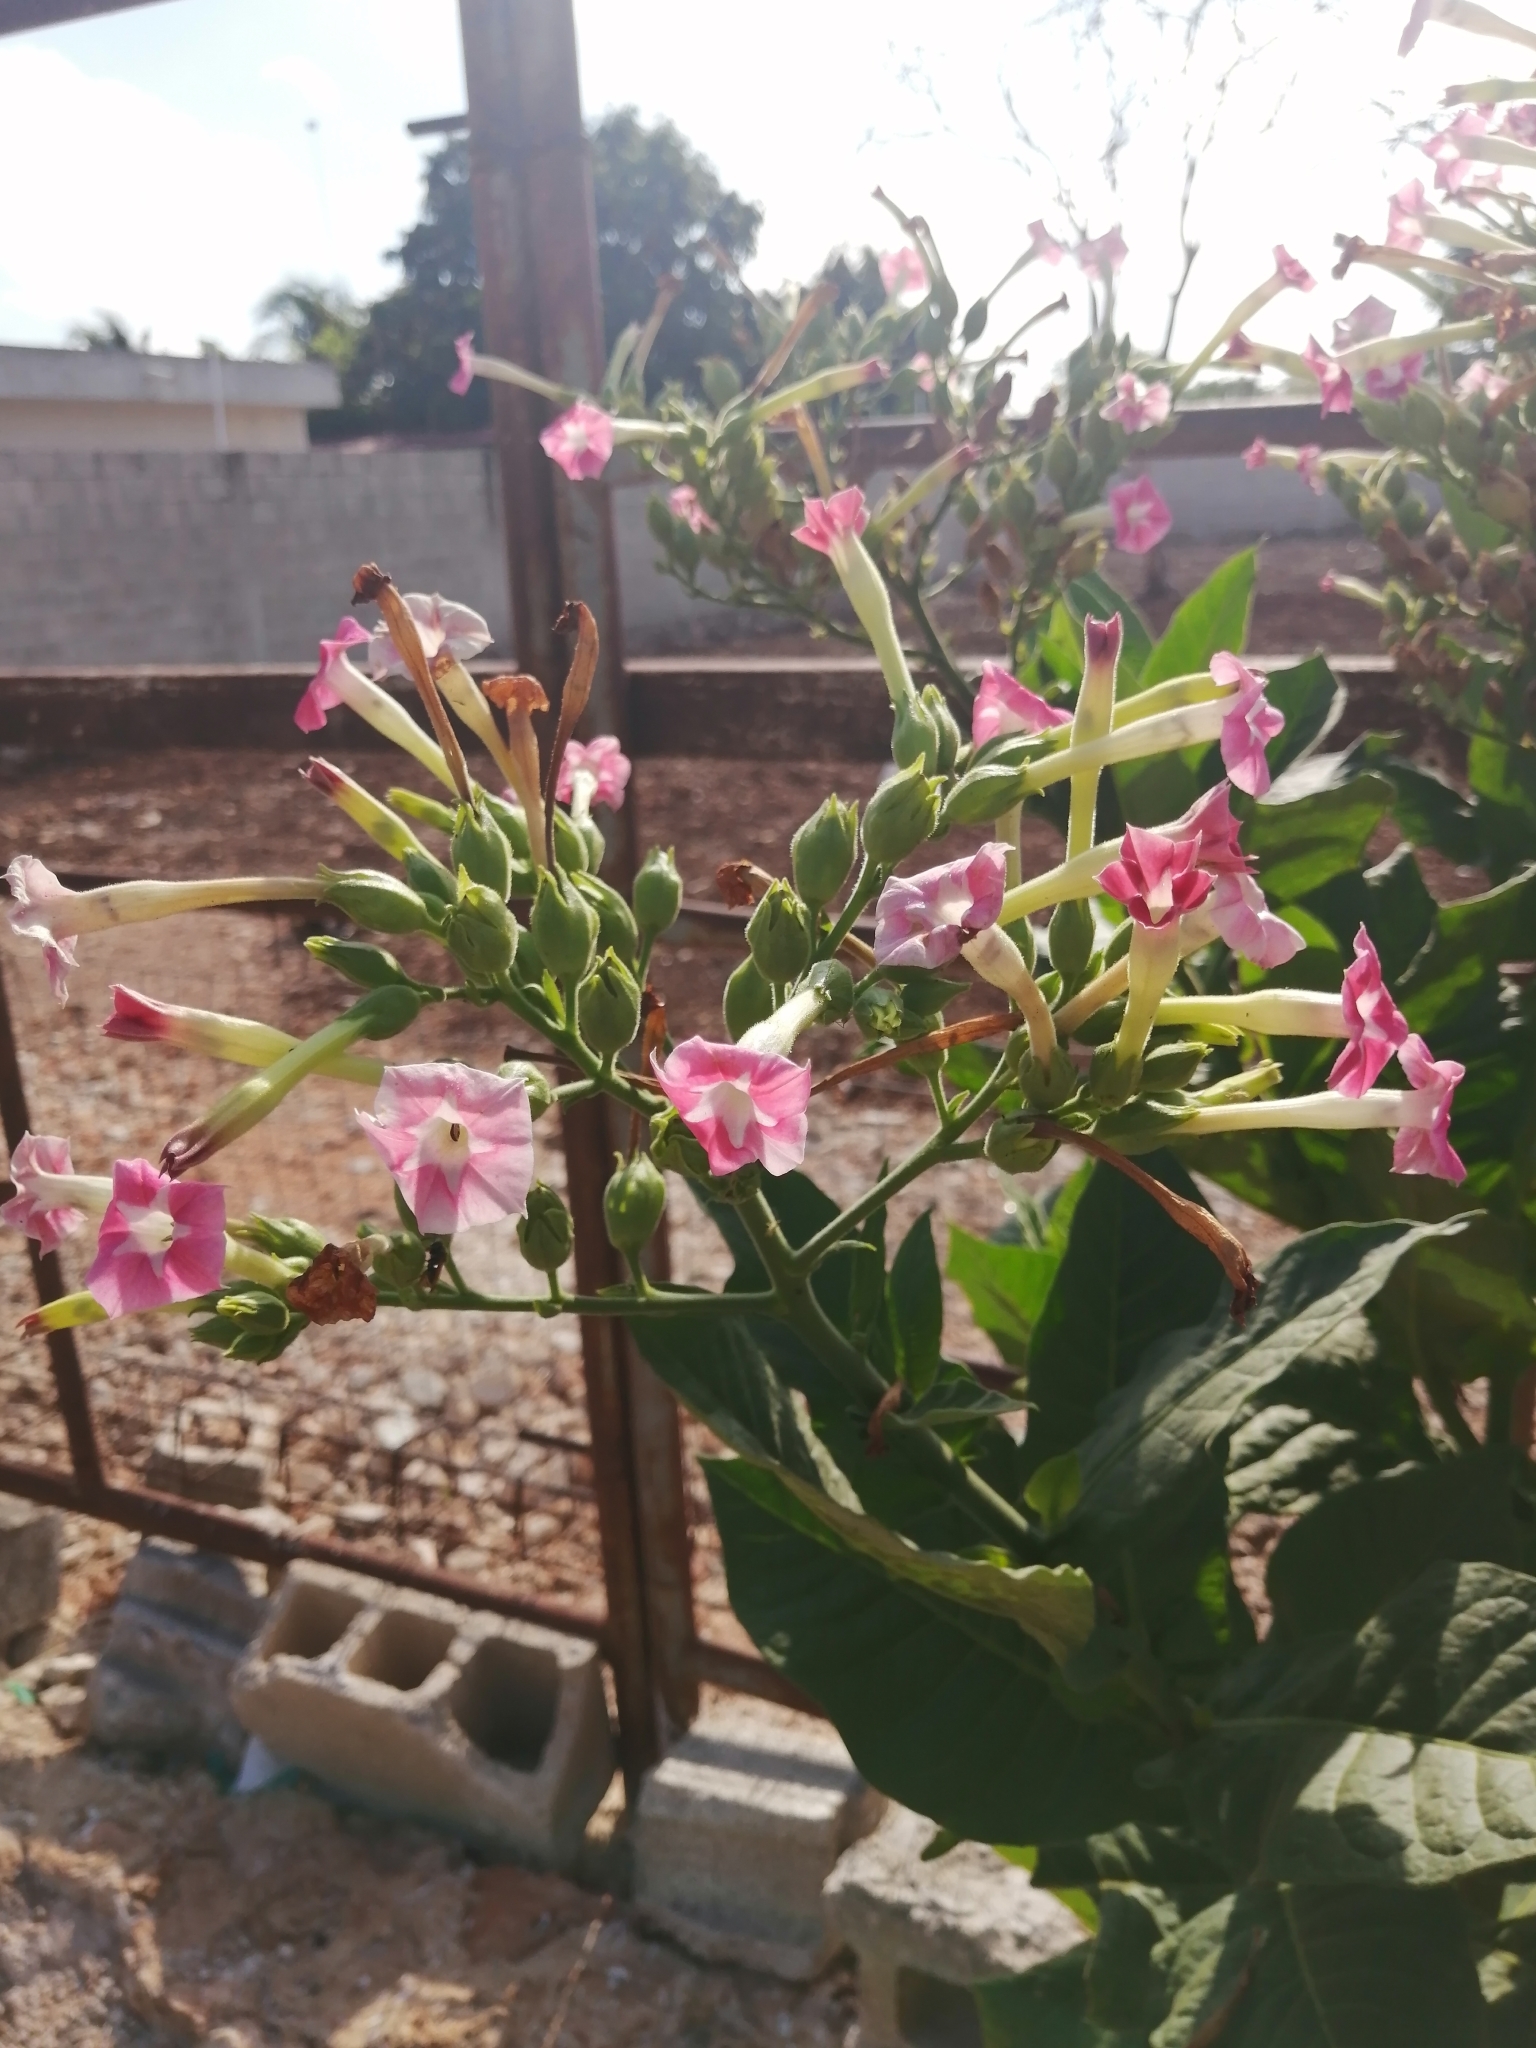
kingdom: Plantae
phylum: Tracheophyta
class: Magnoliopsida
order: Solanales
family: Solanaceae
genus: Nicotiana
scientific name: Nicotiana tabacum
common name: Tobacco
